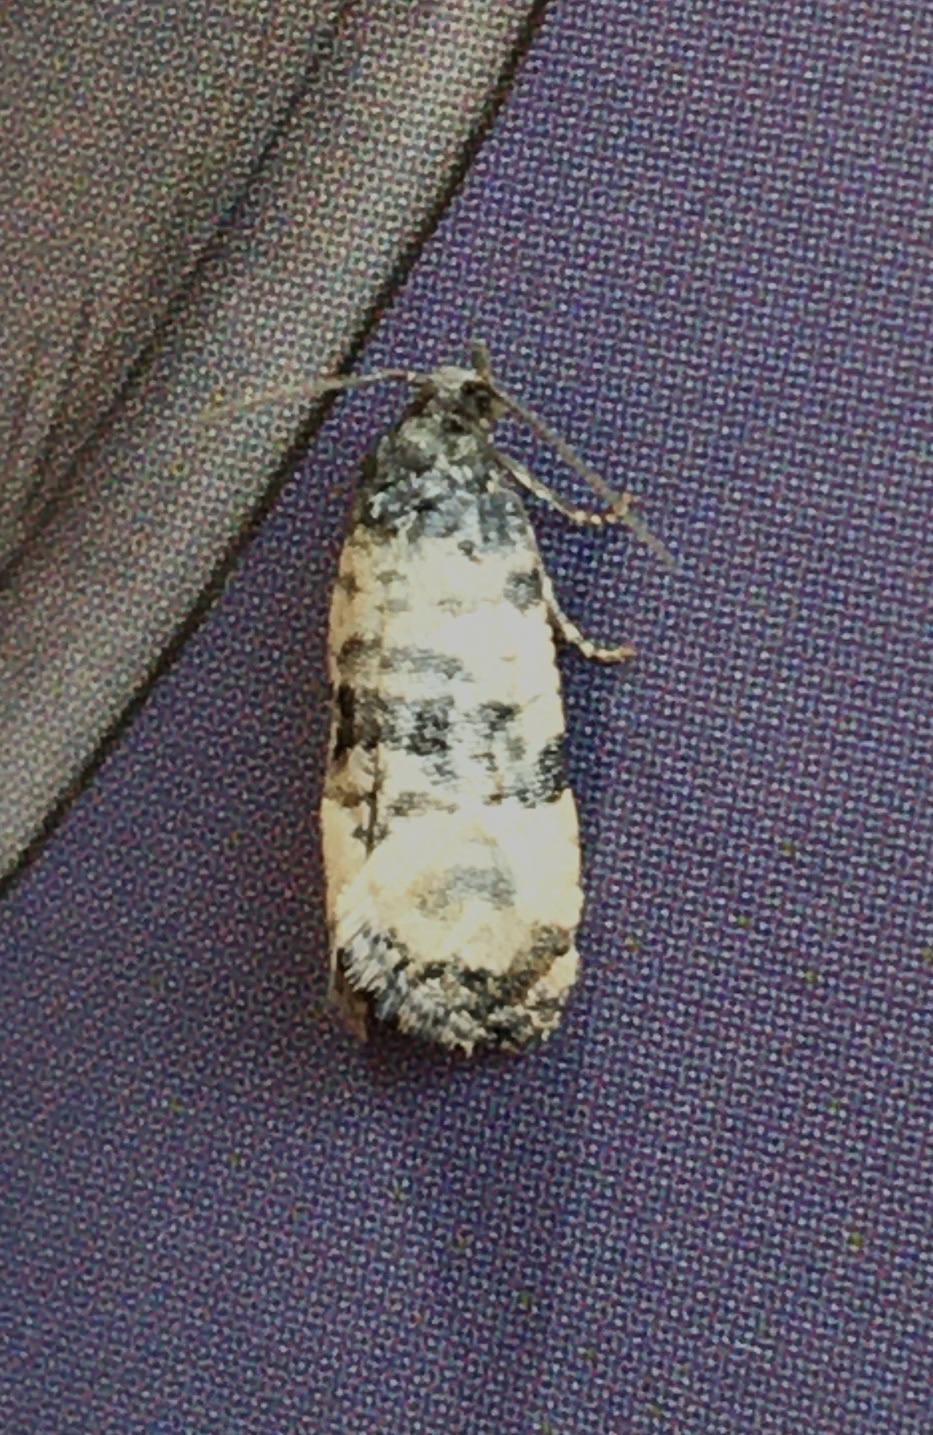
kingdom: Animalia
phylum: Arthropoda
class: Insecta
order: Lepidoptera
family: Tortricidae
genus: Cochylis
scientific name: Cochylis atricapitana
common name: Tortricid moth
